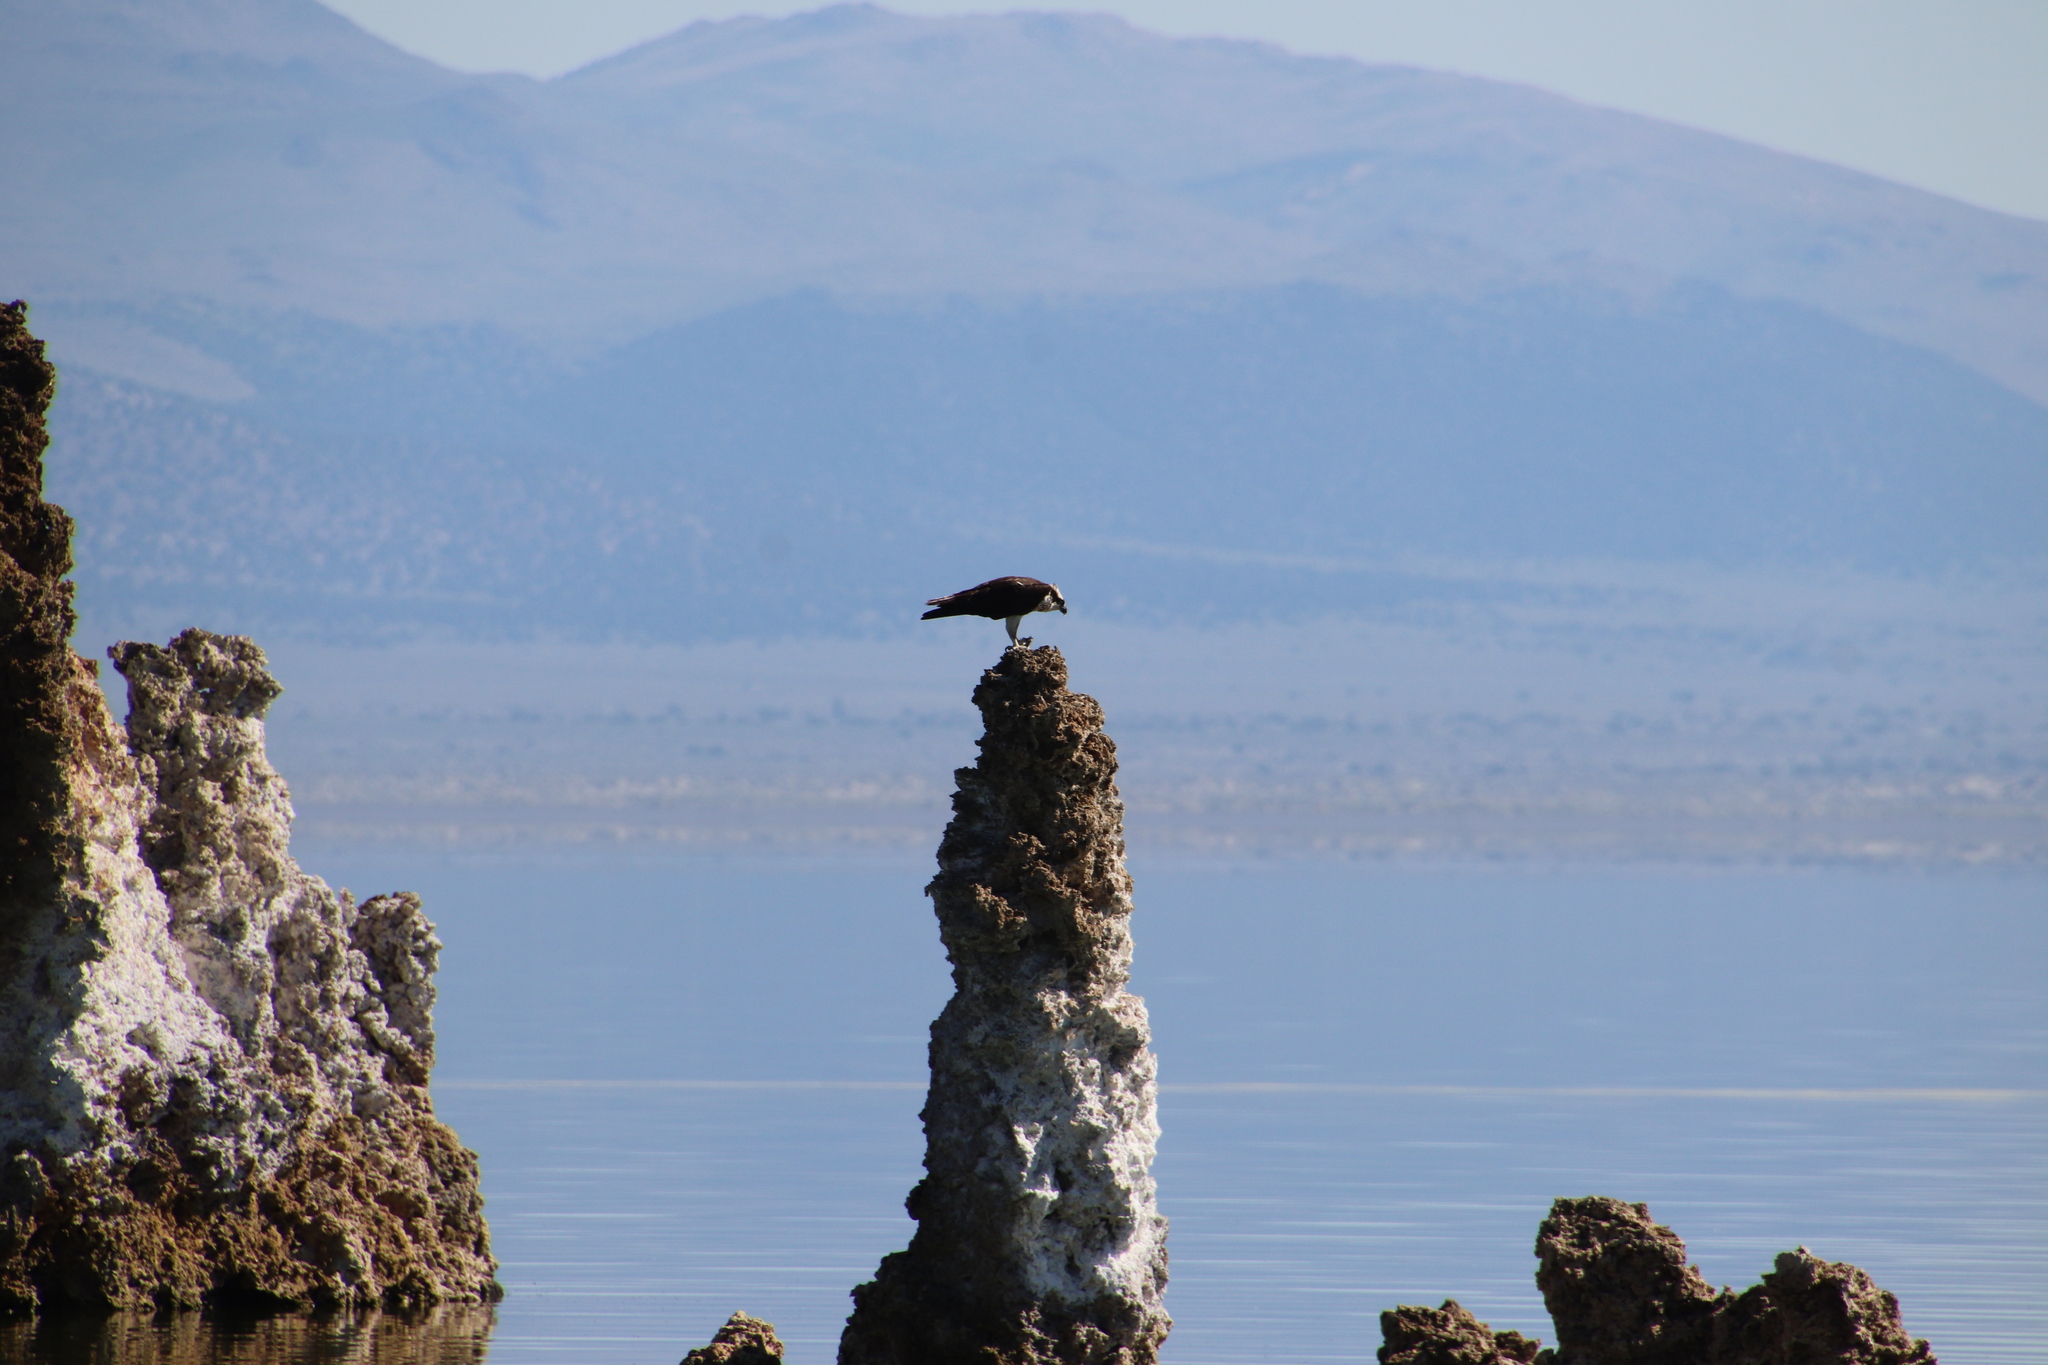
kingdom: Animalia
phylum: Chordata
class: Aves
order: Accipitriformes
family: Pandionidae
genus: Pandion
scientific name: Pandion haliaetus
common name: Osprey
